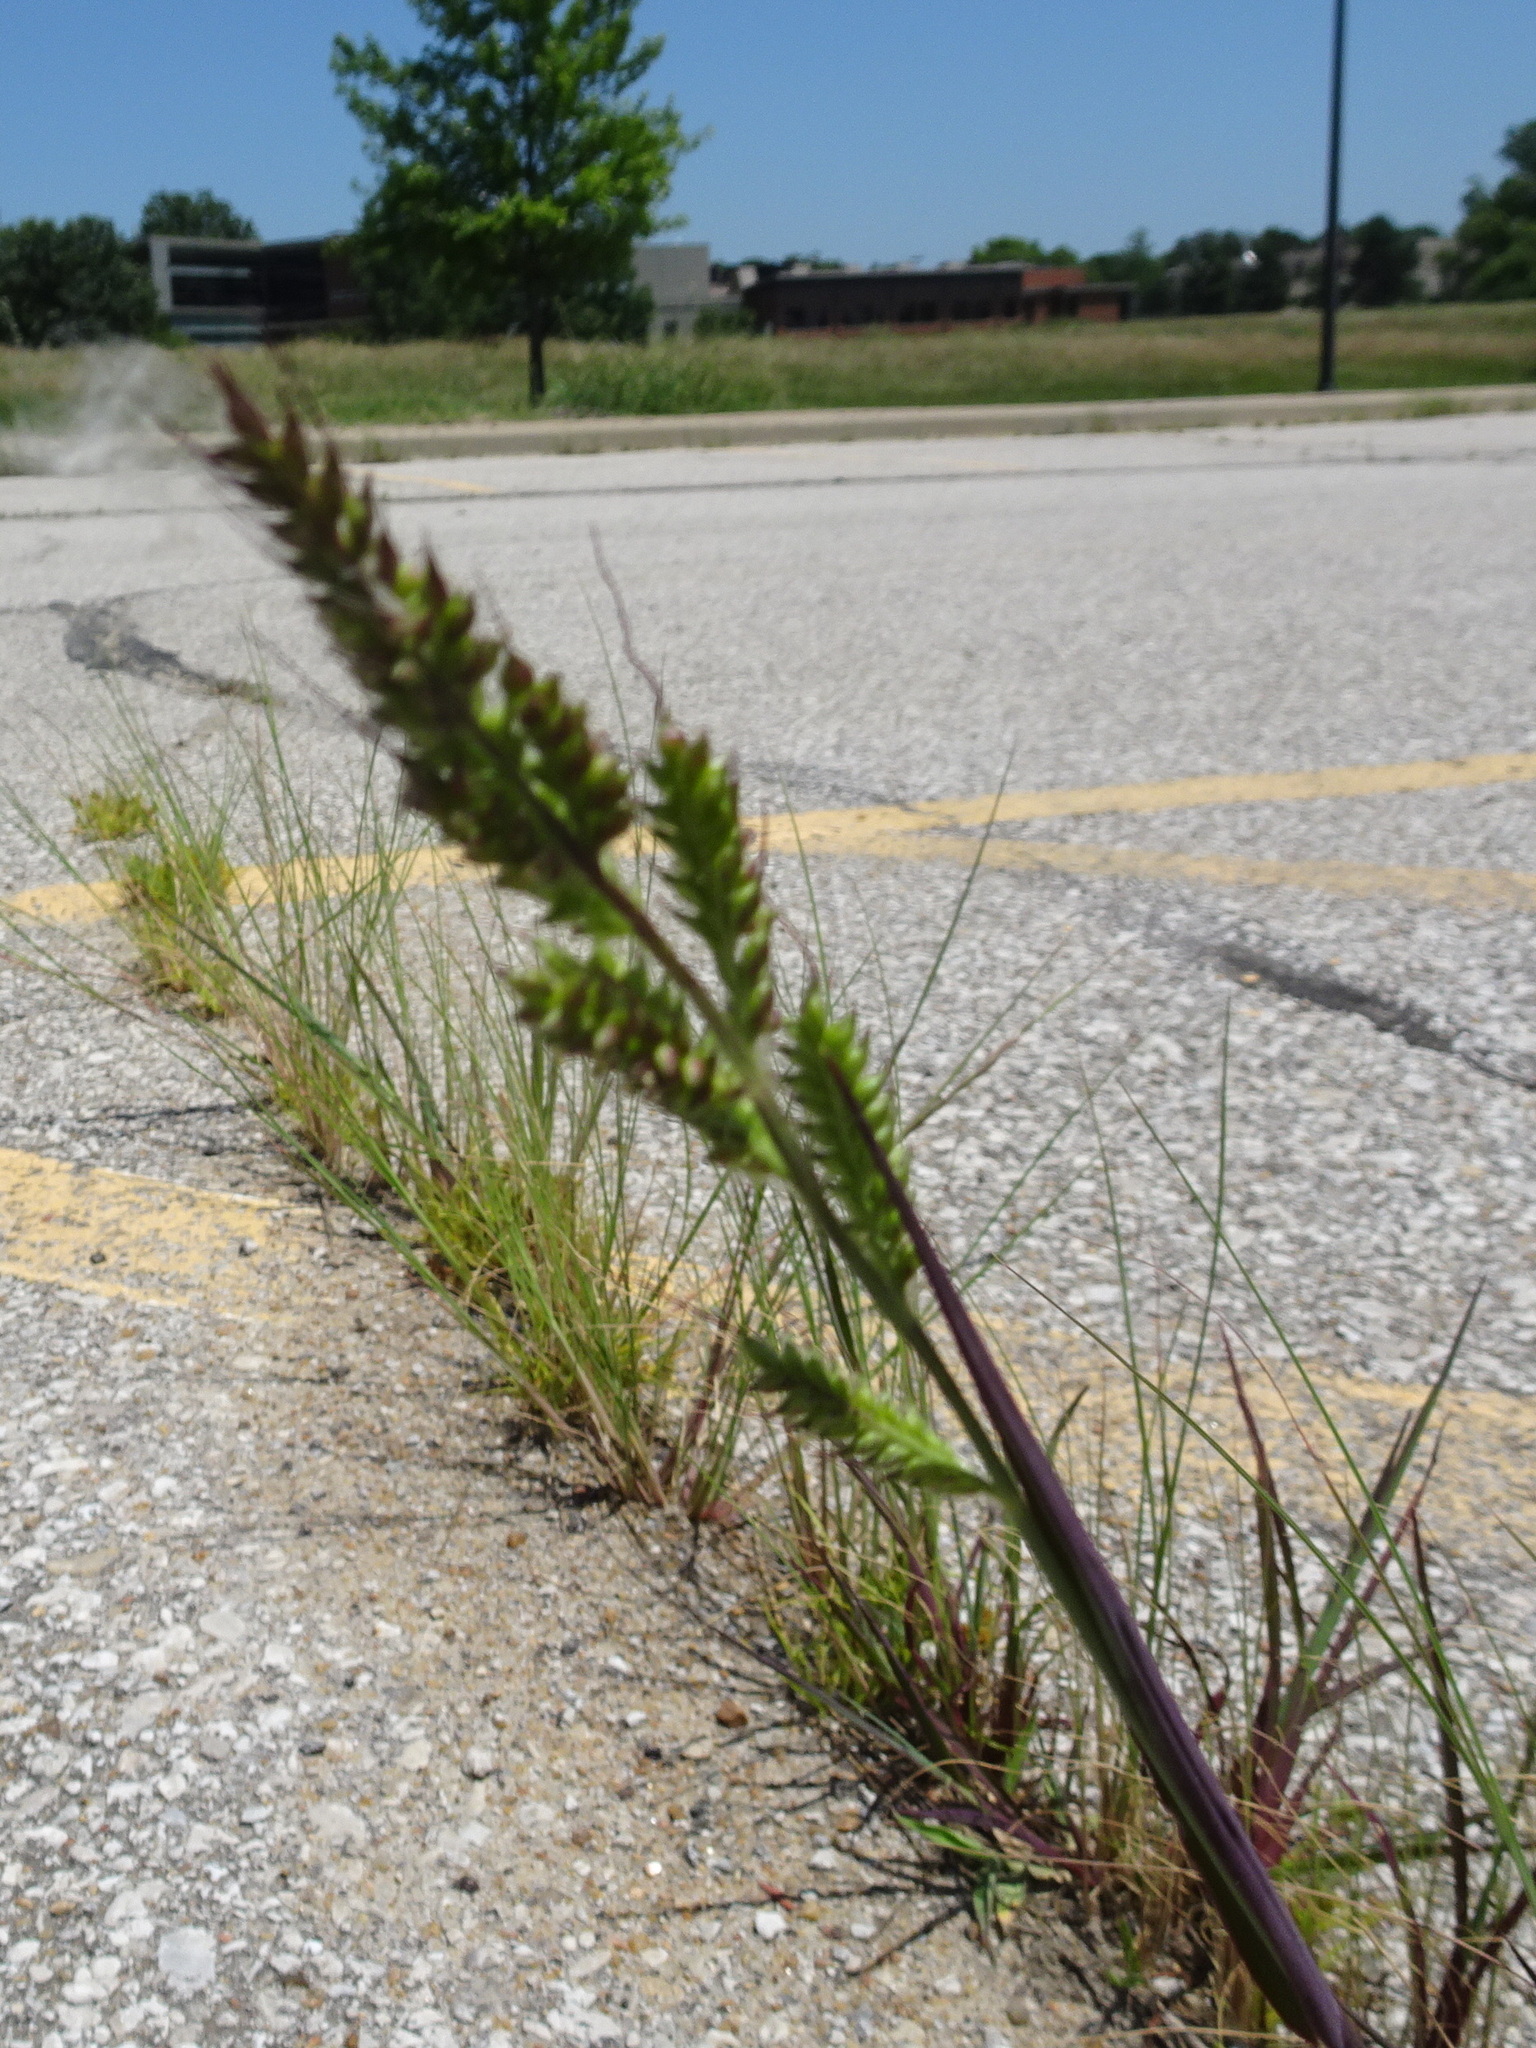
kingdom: Plantae
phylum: Tracheophyta
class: Liliopsida
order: Poales
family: Poaceae
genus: Echinochloa
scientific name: Echinochloa crus-galli
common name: Cockspur
